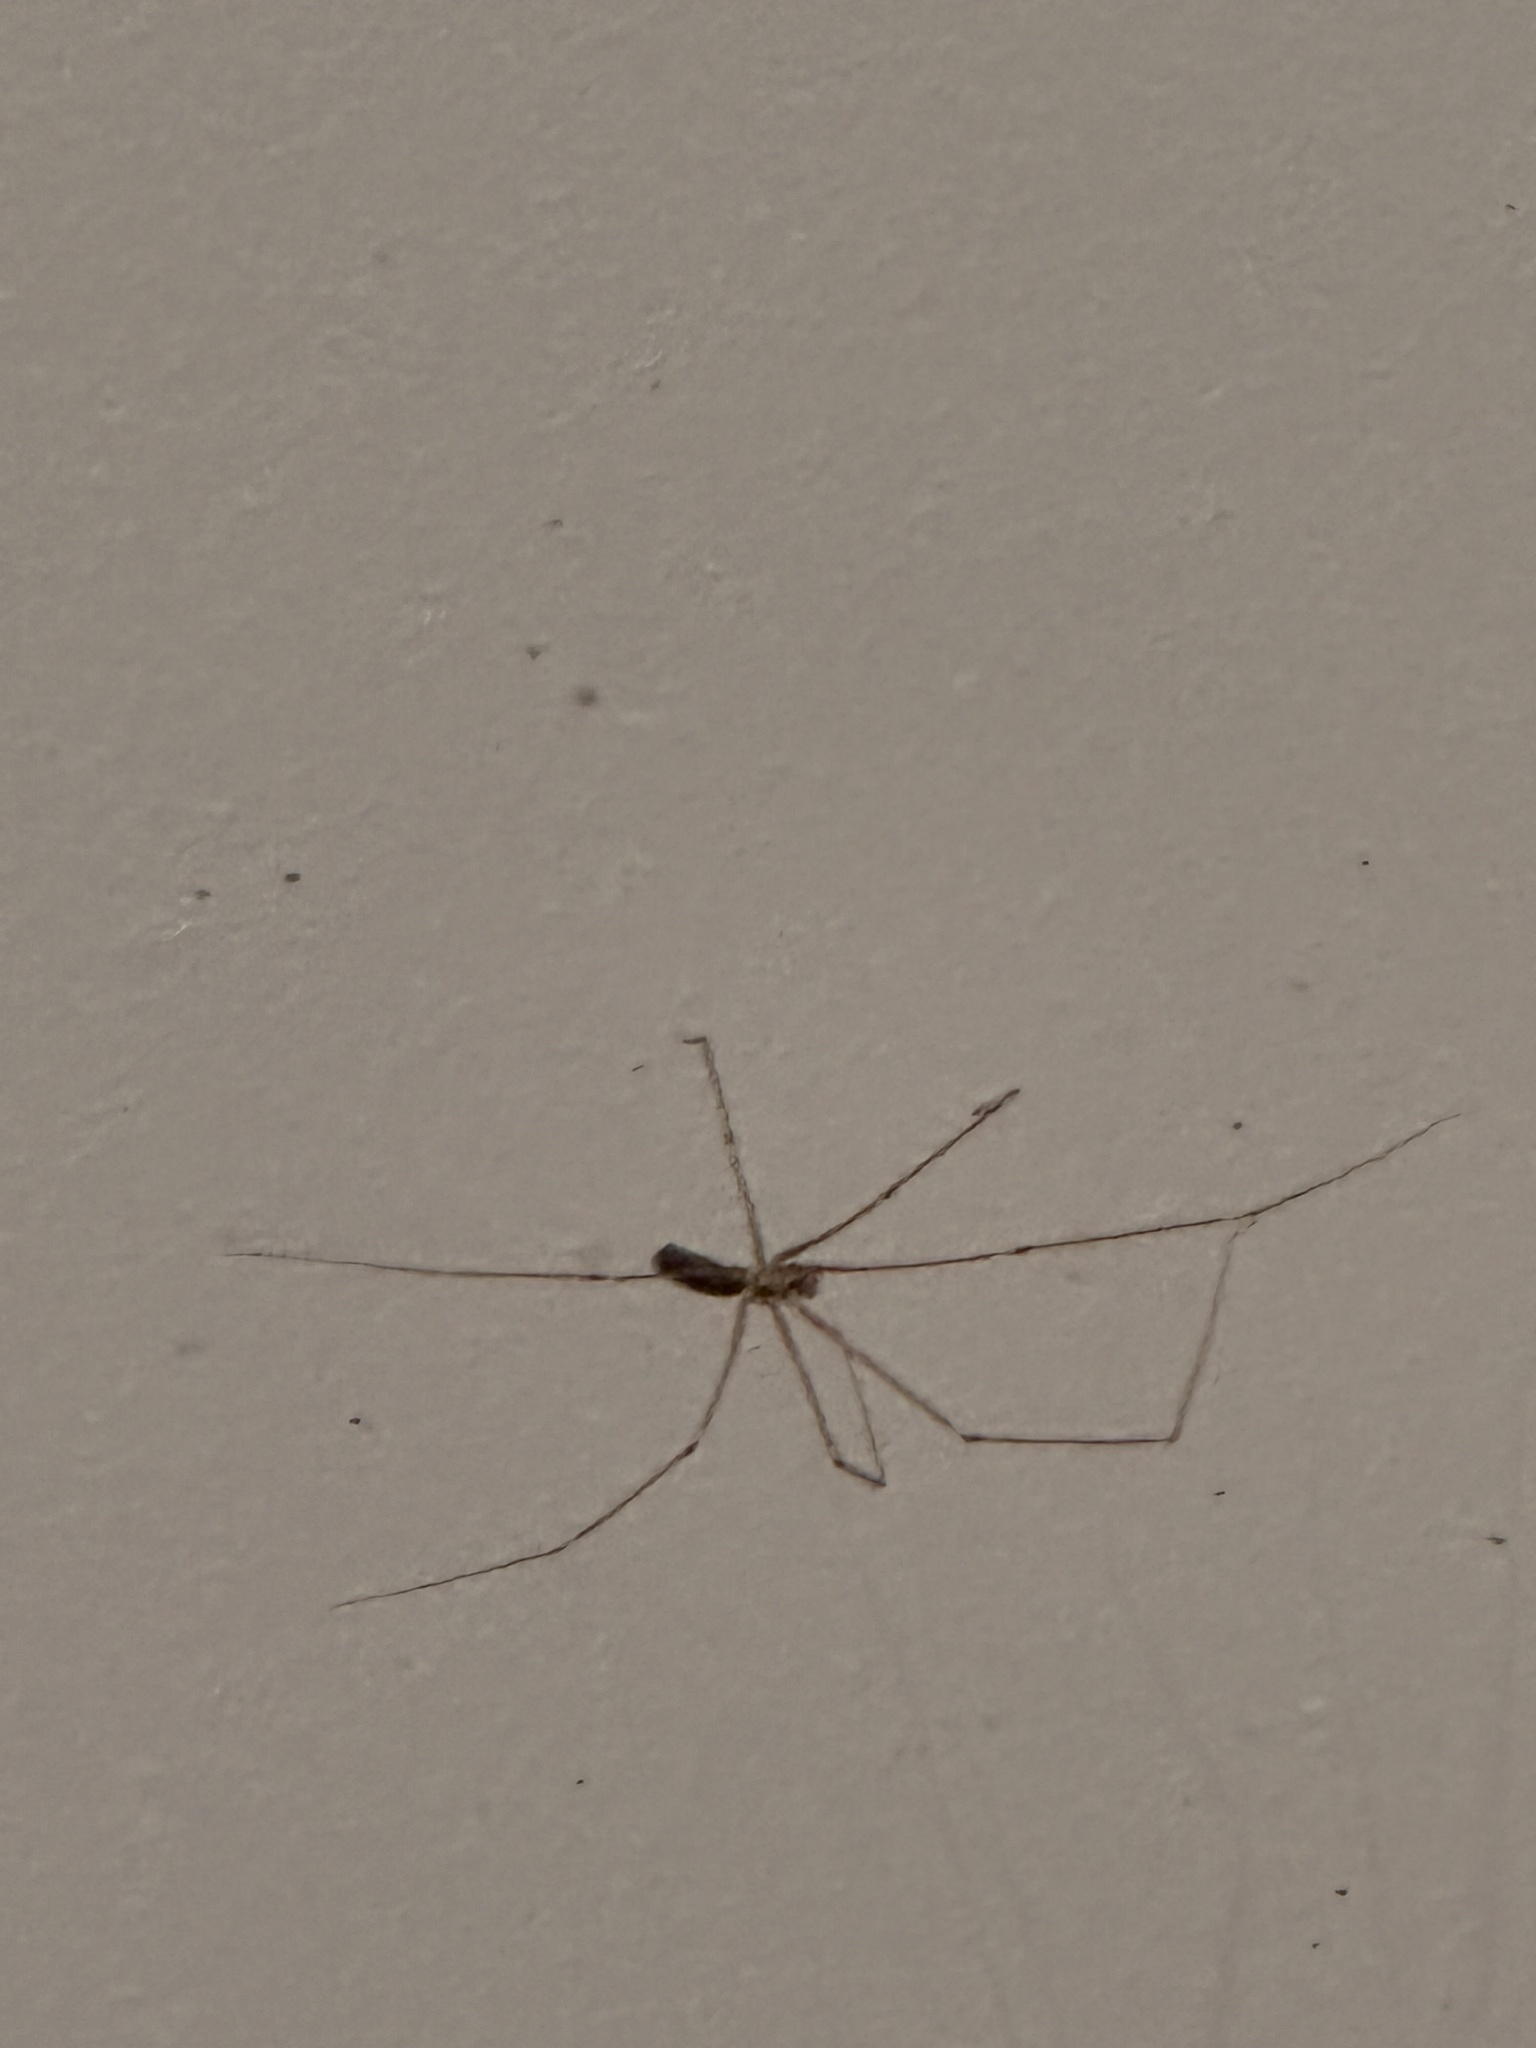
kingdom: Animalia
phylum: Arthropoda
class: Arachnida
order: Araneae
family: Pholcidae
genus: Pholcus
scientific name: Pholcus phalangioides
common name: Longbodied cellar spider
